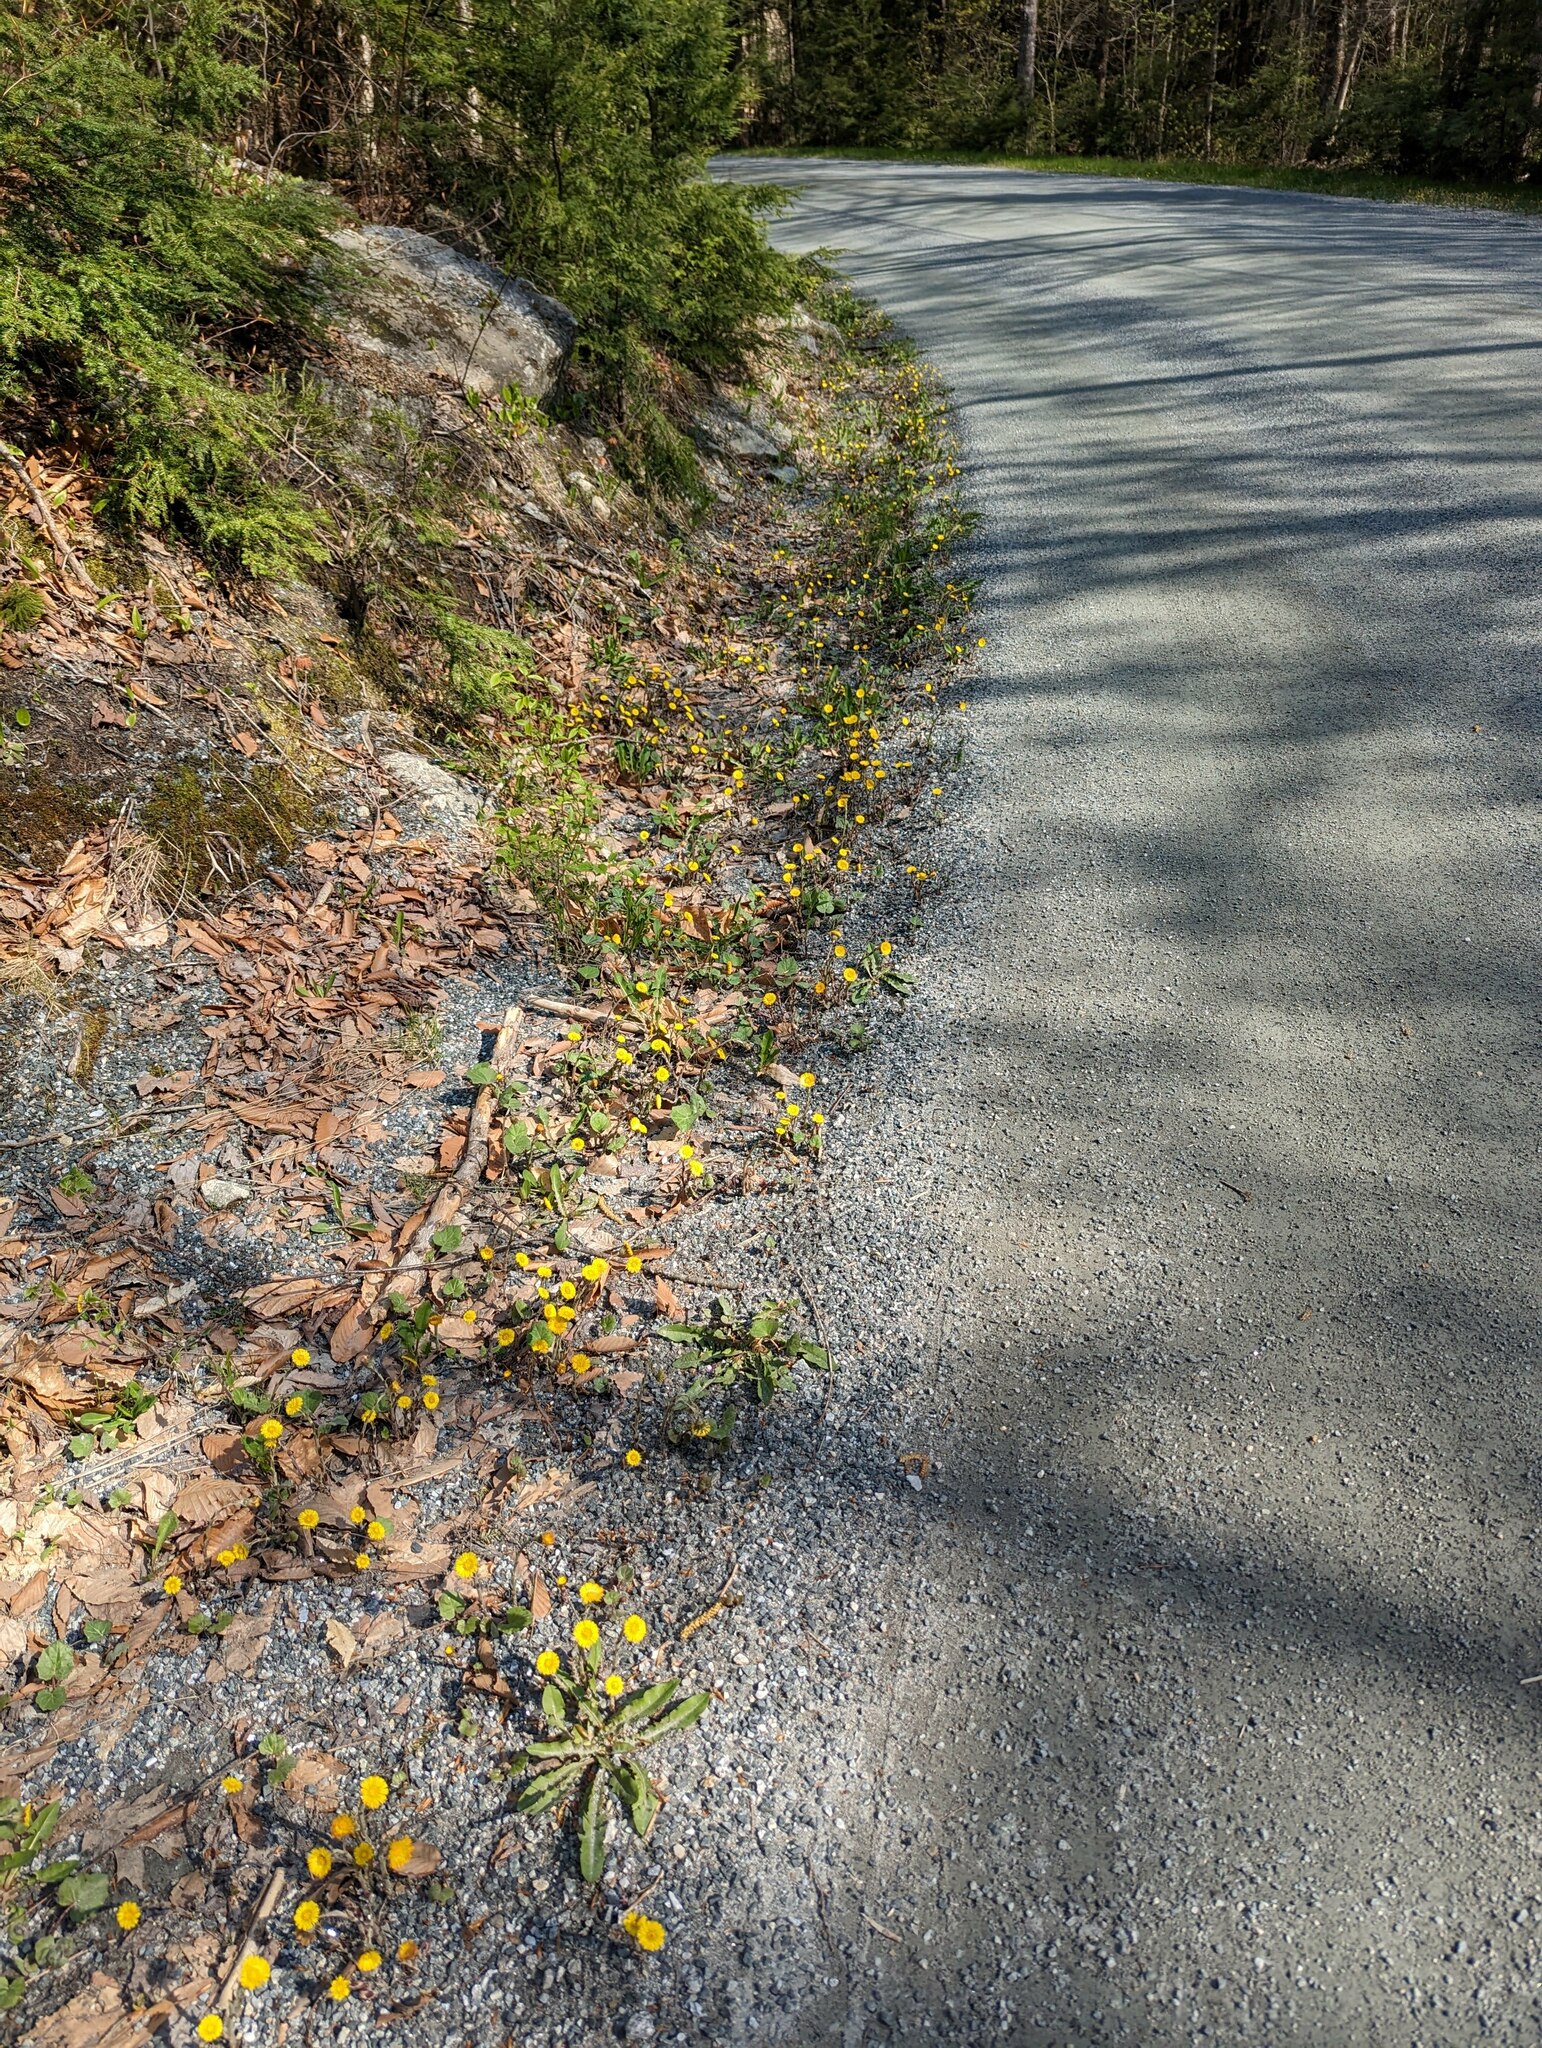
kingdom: Plantae
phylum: Tracheophyta
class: Magnoliopsida
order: Asterales
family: Asteraceae
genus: Tussilago
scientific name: Tussilago farfara
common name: Coltsfoot
